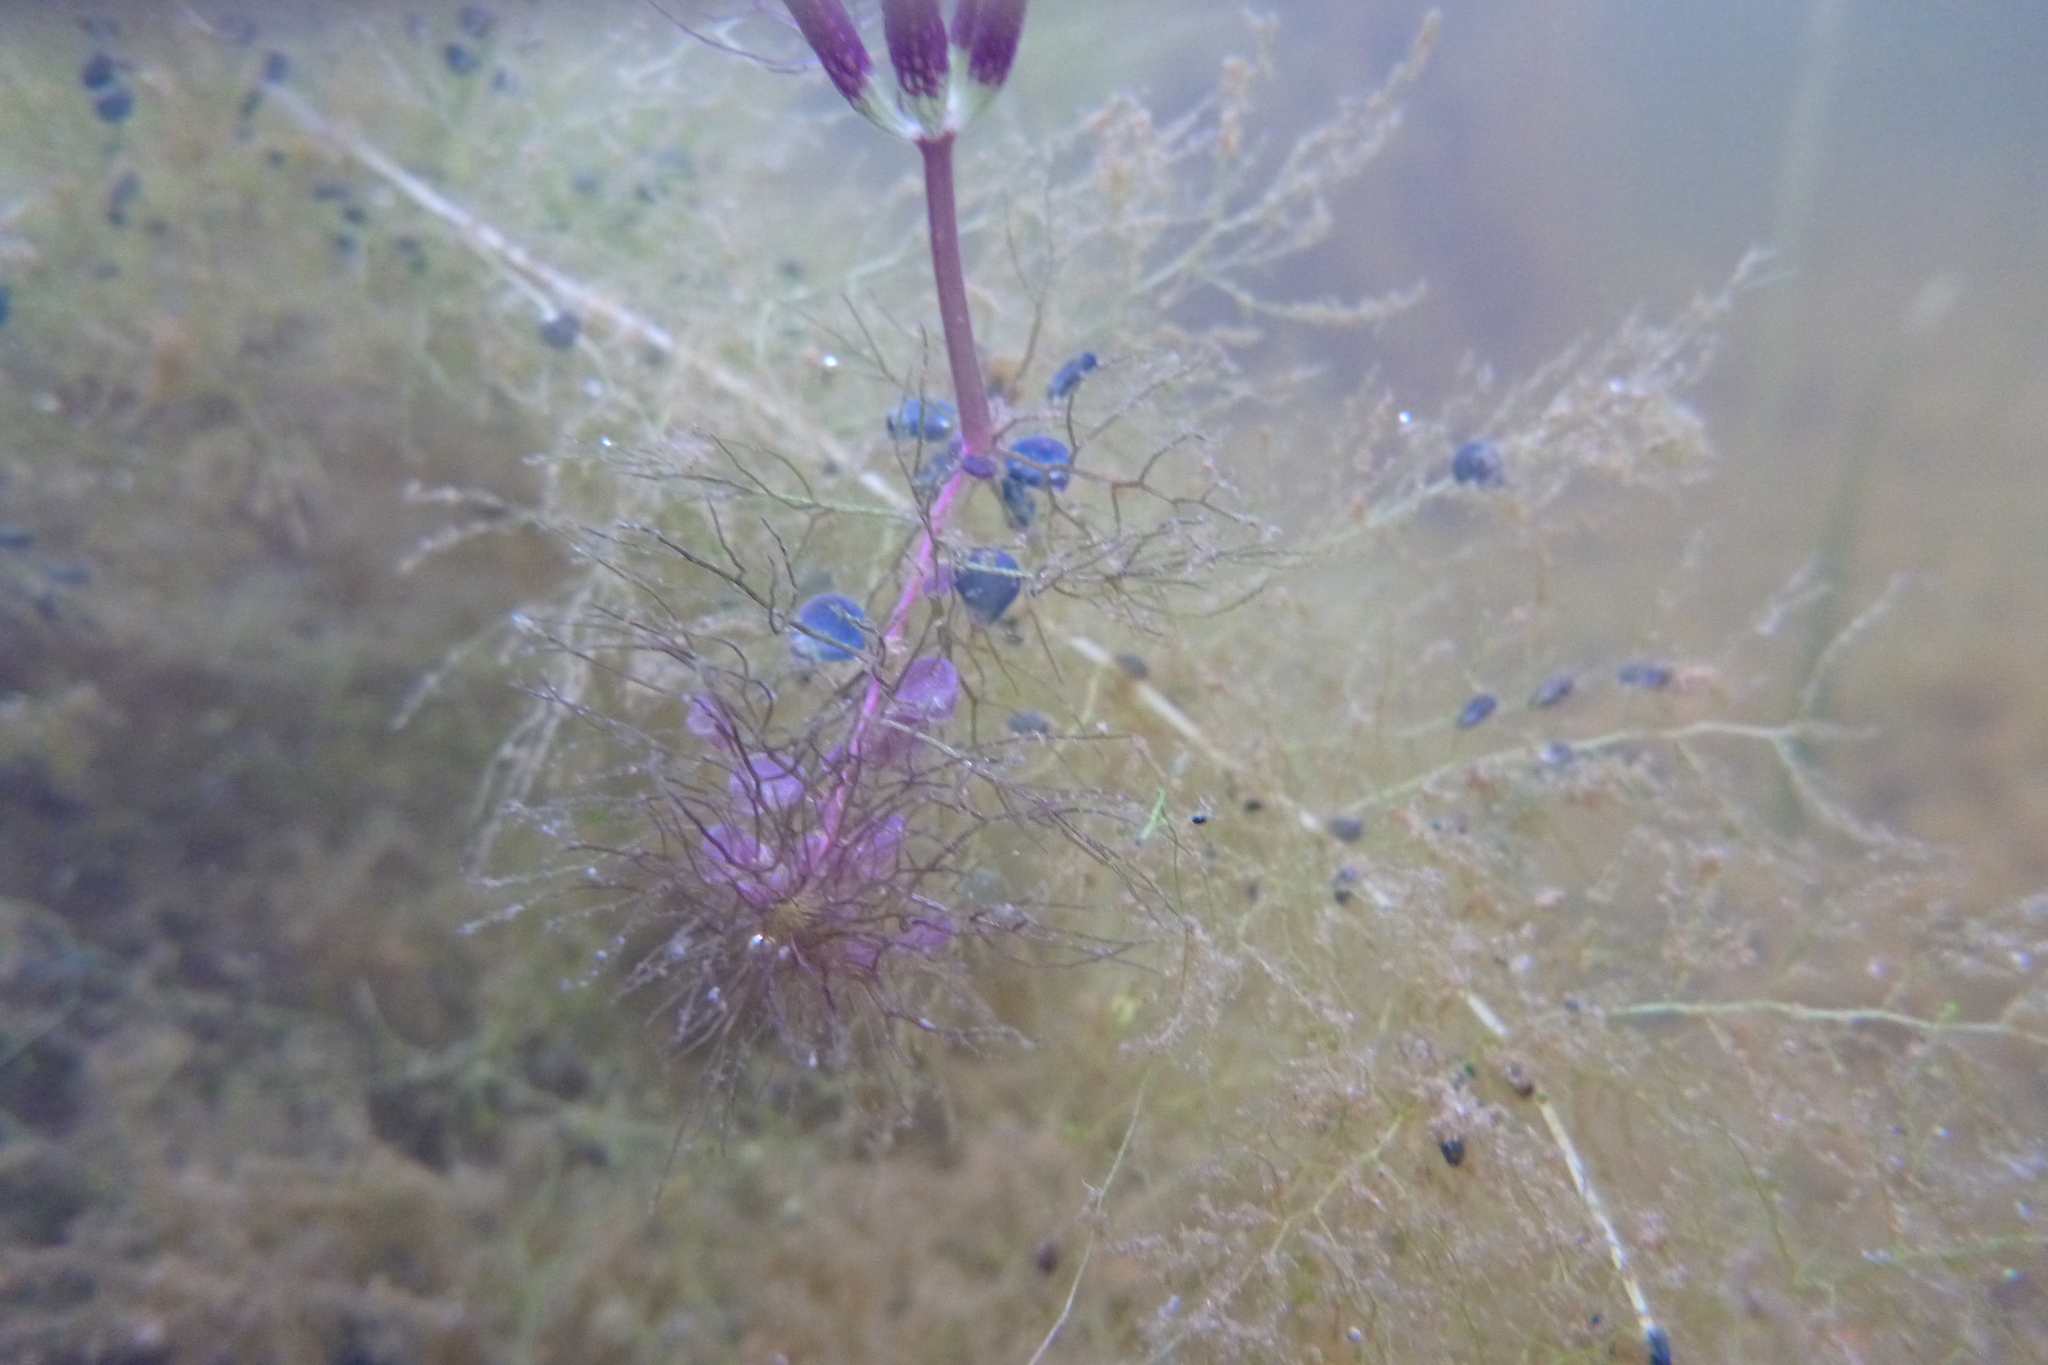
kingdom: Plantae
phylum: Tracheophyta
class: Magnoliopsida
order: Lamiales
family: Lentibulariaceae
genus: Utricularia
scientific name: Utricularia muelleri
